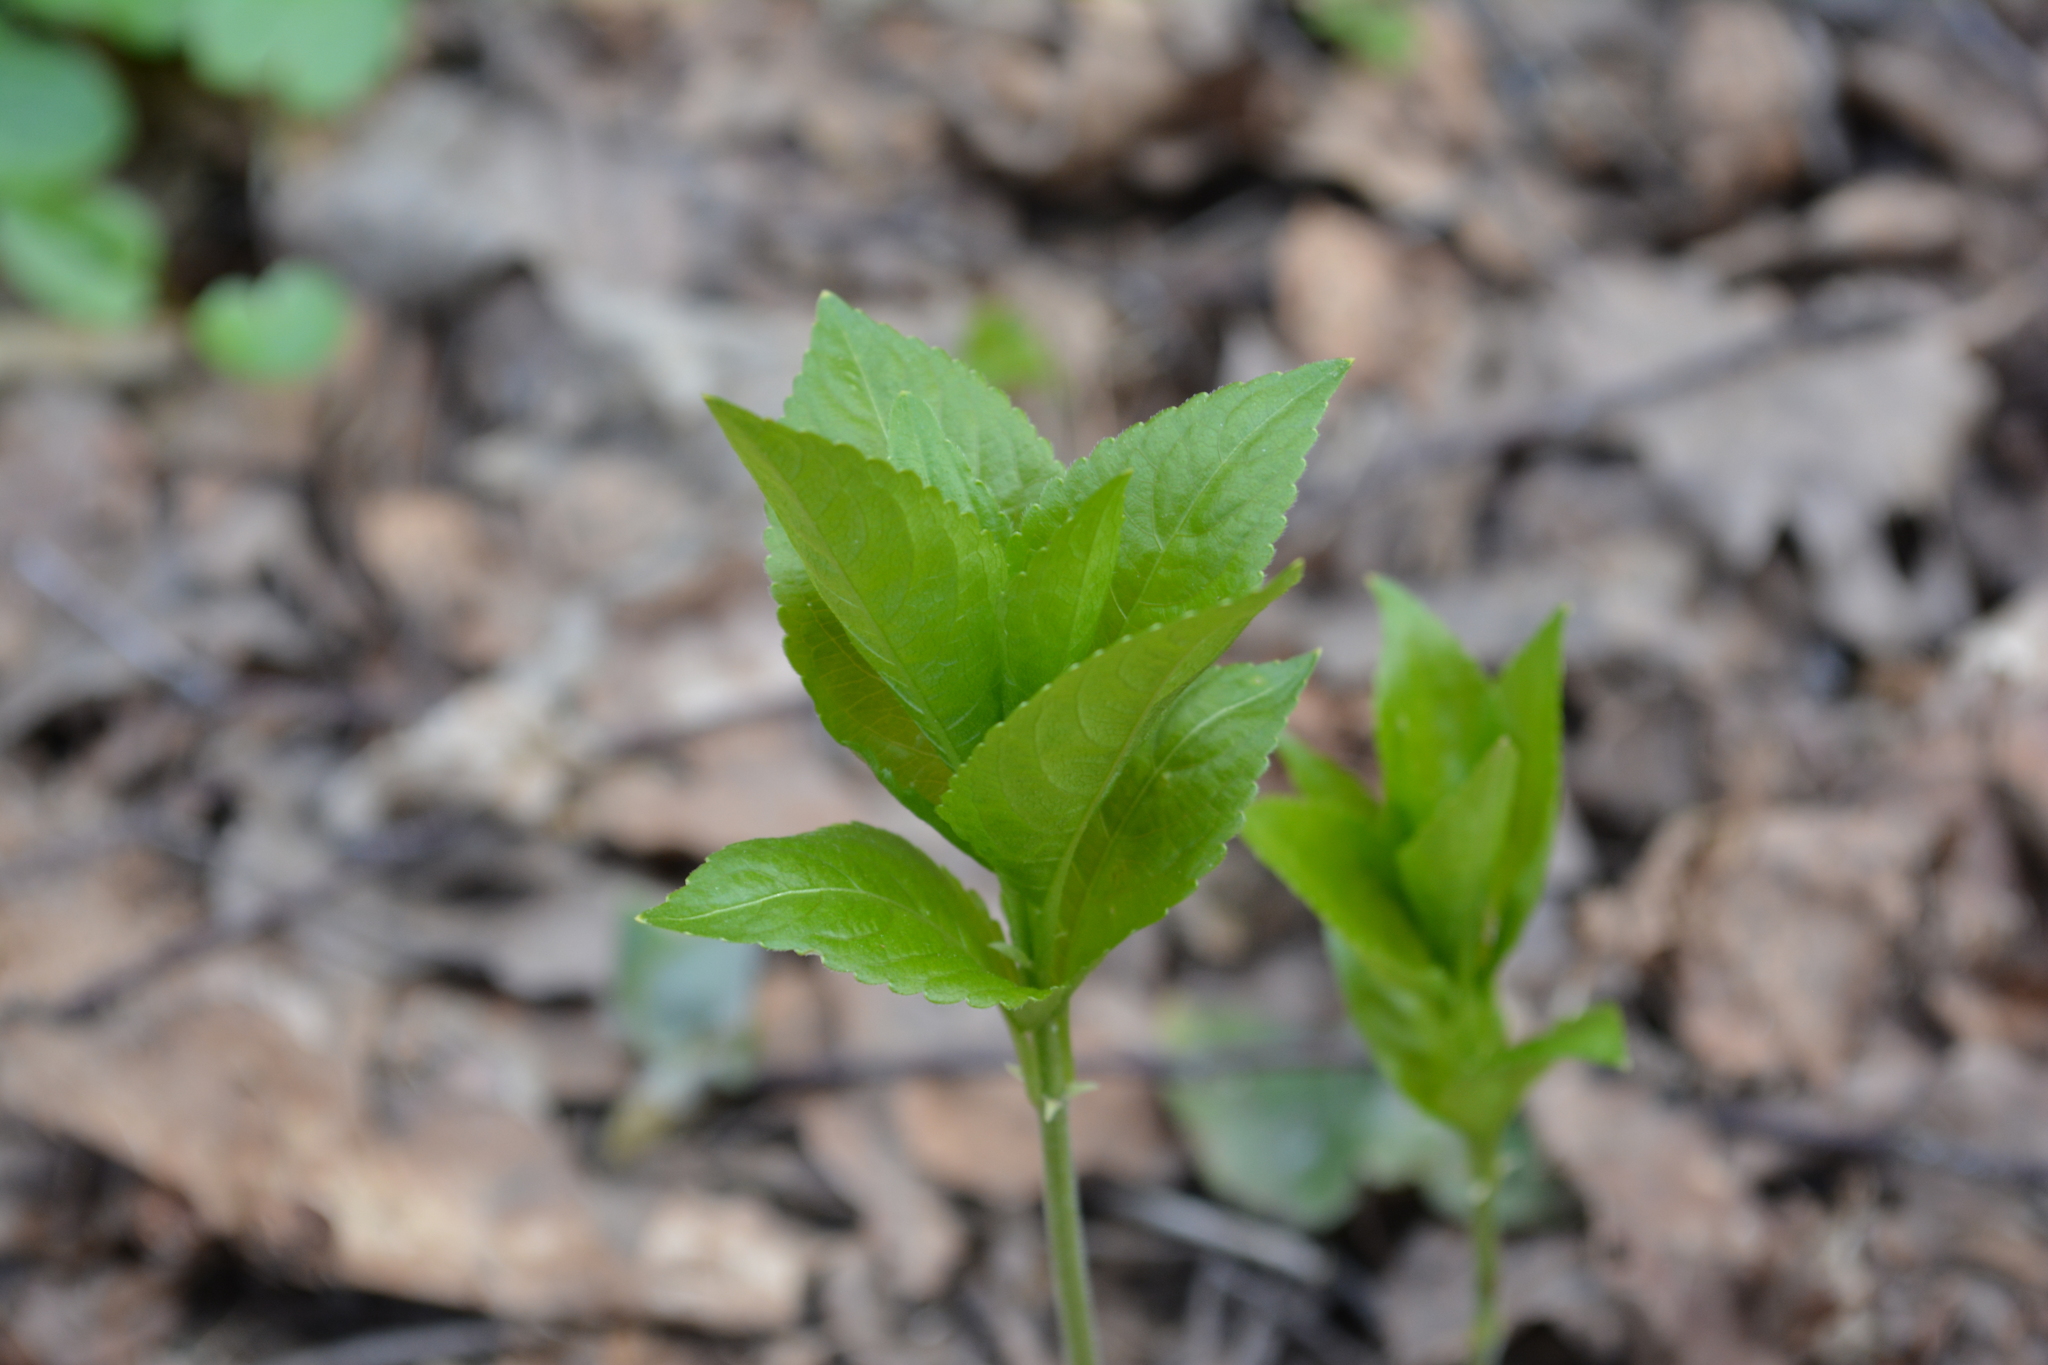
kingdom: Plantae
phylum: Tracheophyta
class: Magnoliopsida
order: Malpighiales
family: Euphorbiaceae
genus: Mercurialis
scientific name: Mercurialis perennis
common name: Dog mercury
